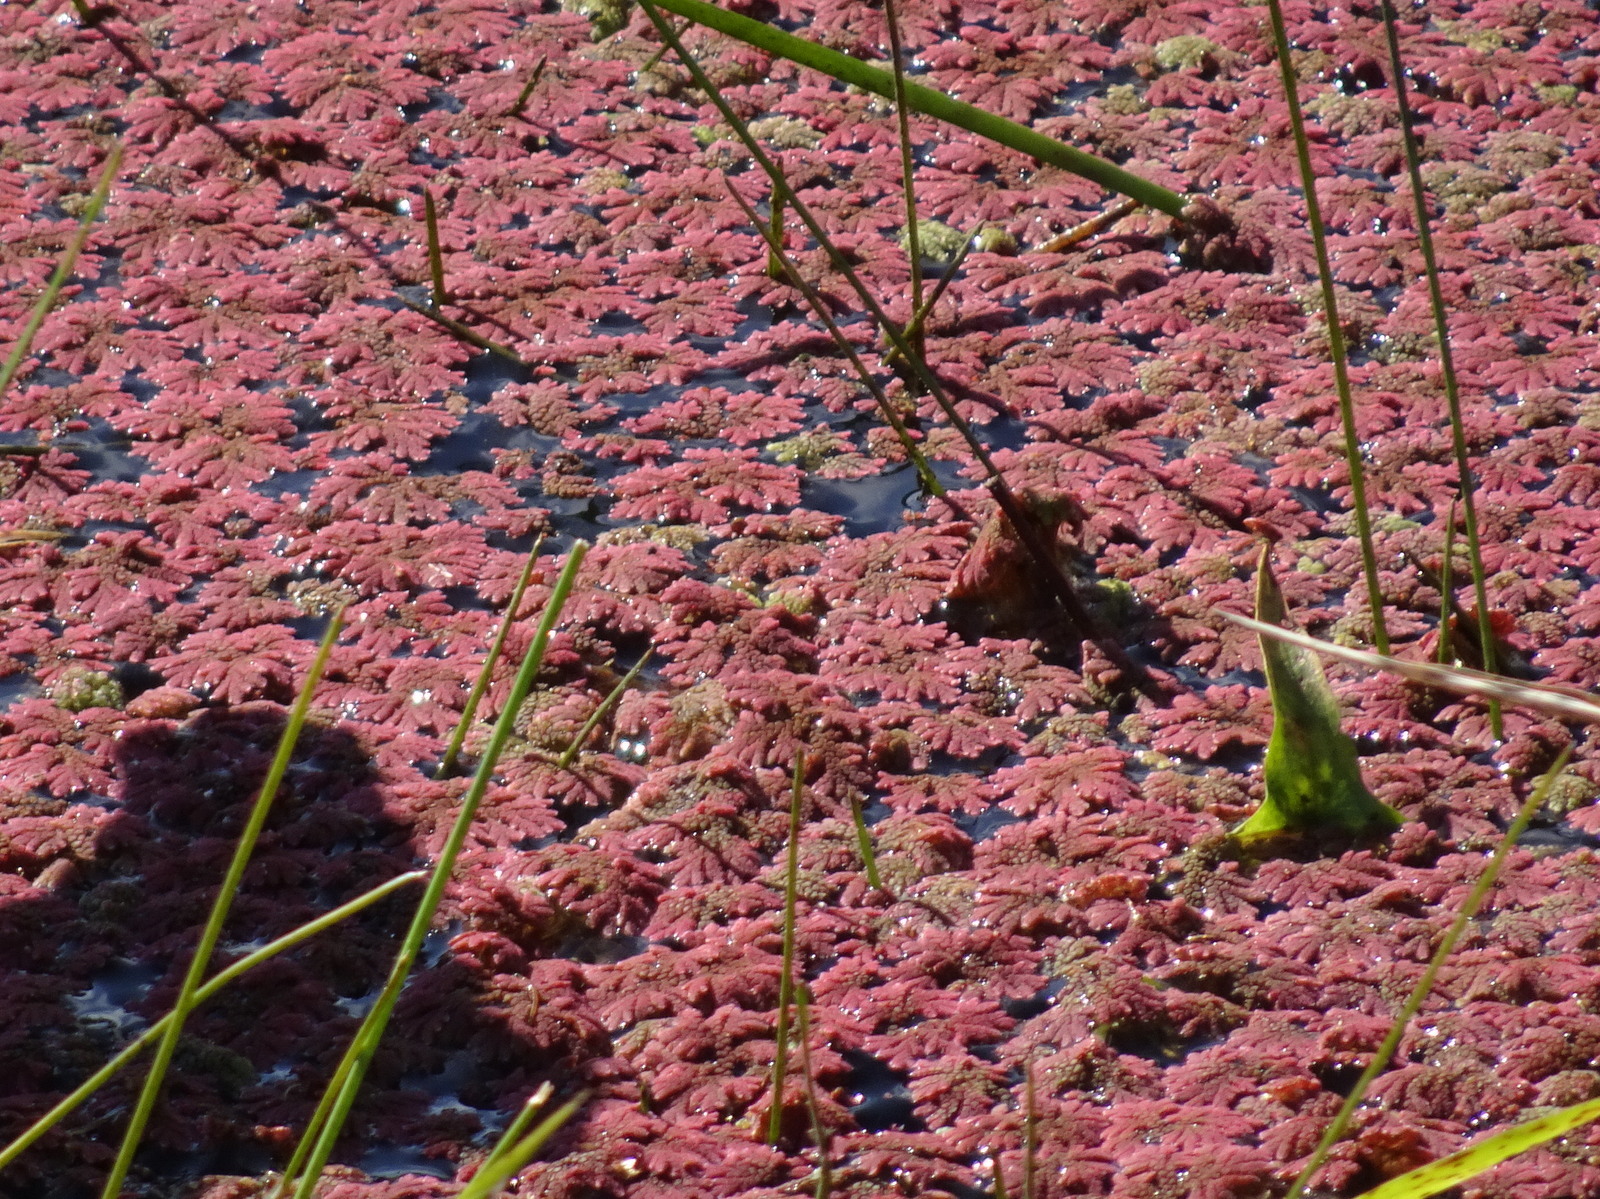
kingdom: Plantae
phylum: Tracheophyta
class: Polypodiopsida
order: Salviniales
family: Salviniaceae
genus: Azolla
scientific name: Azolla caroliniana
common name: Carolina mosquitofern
